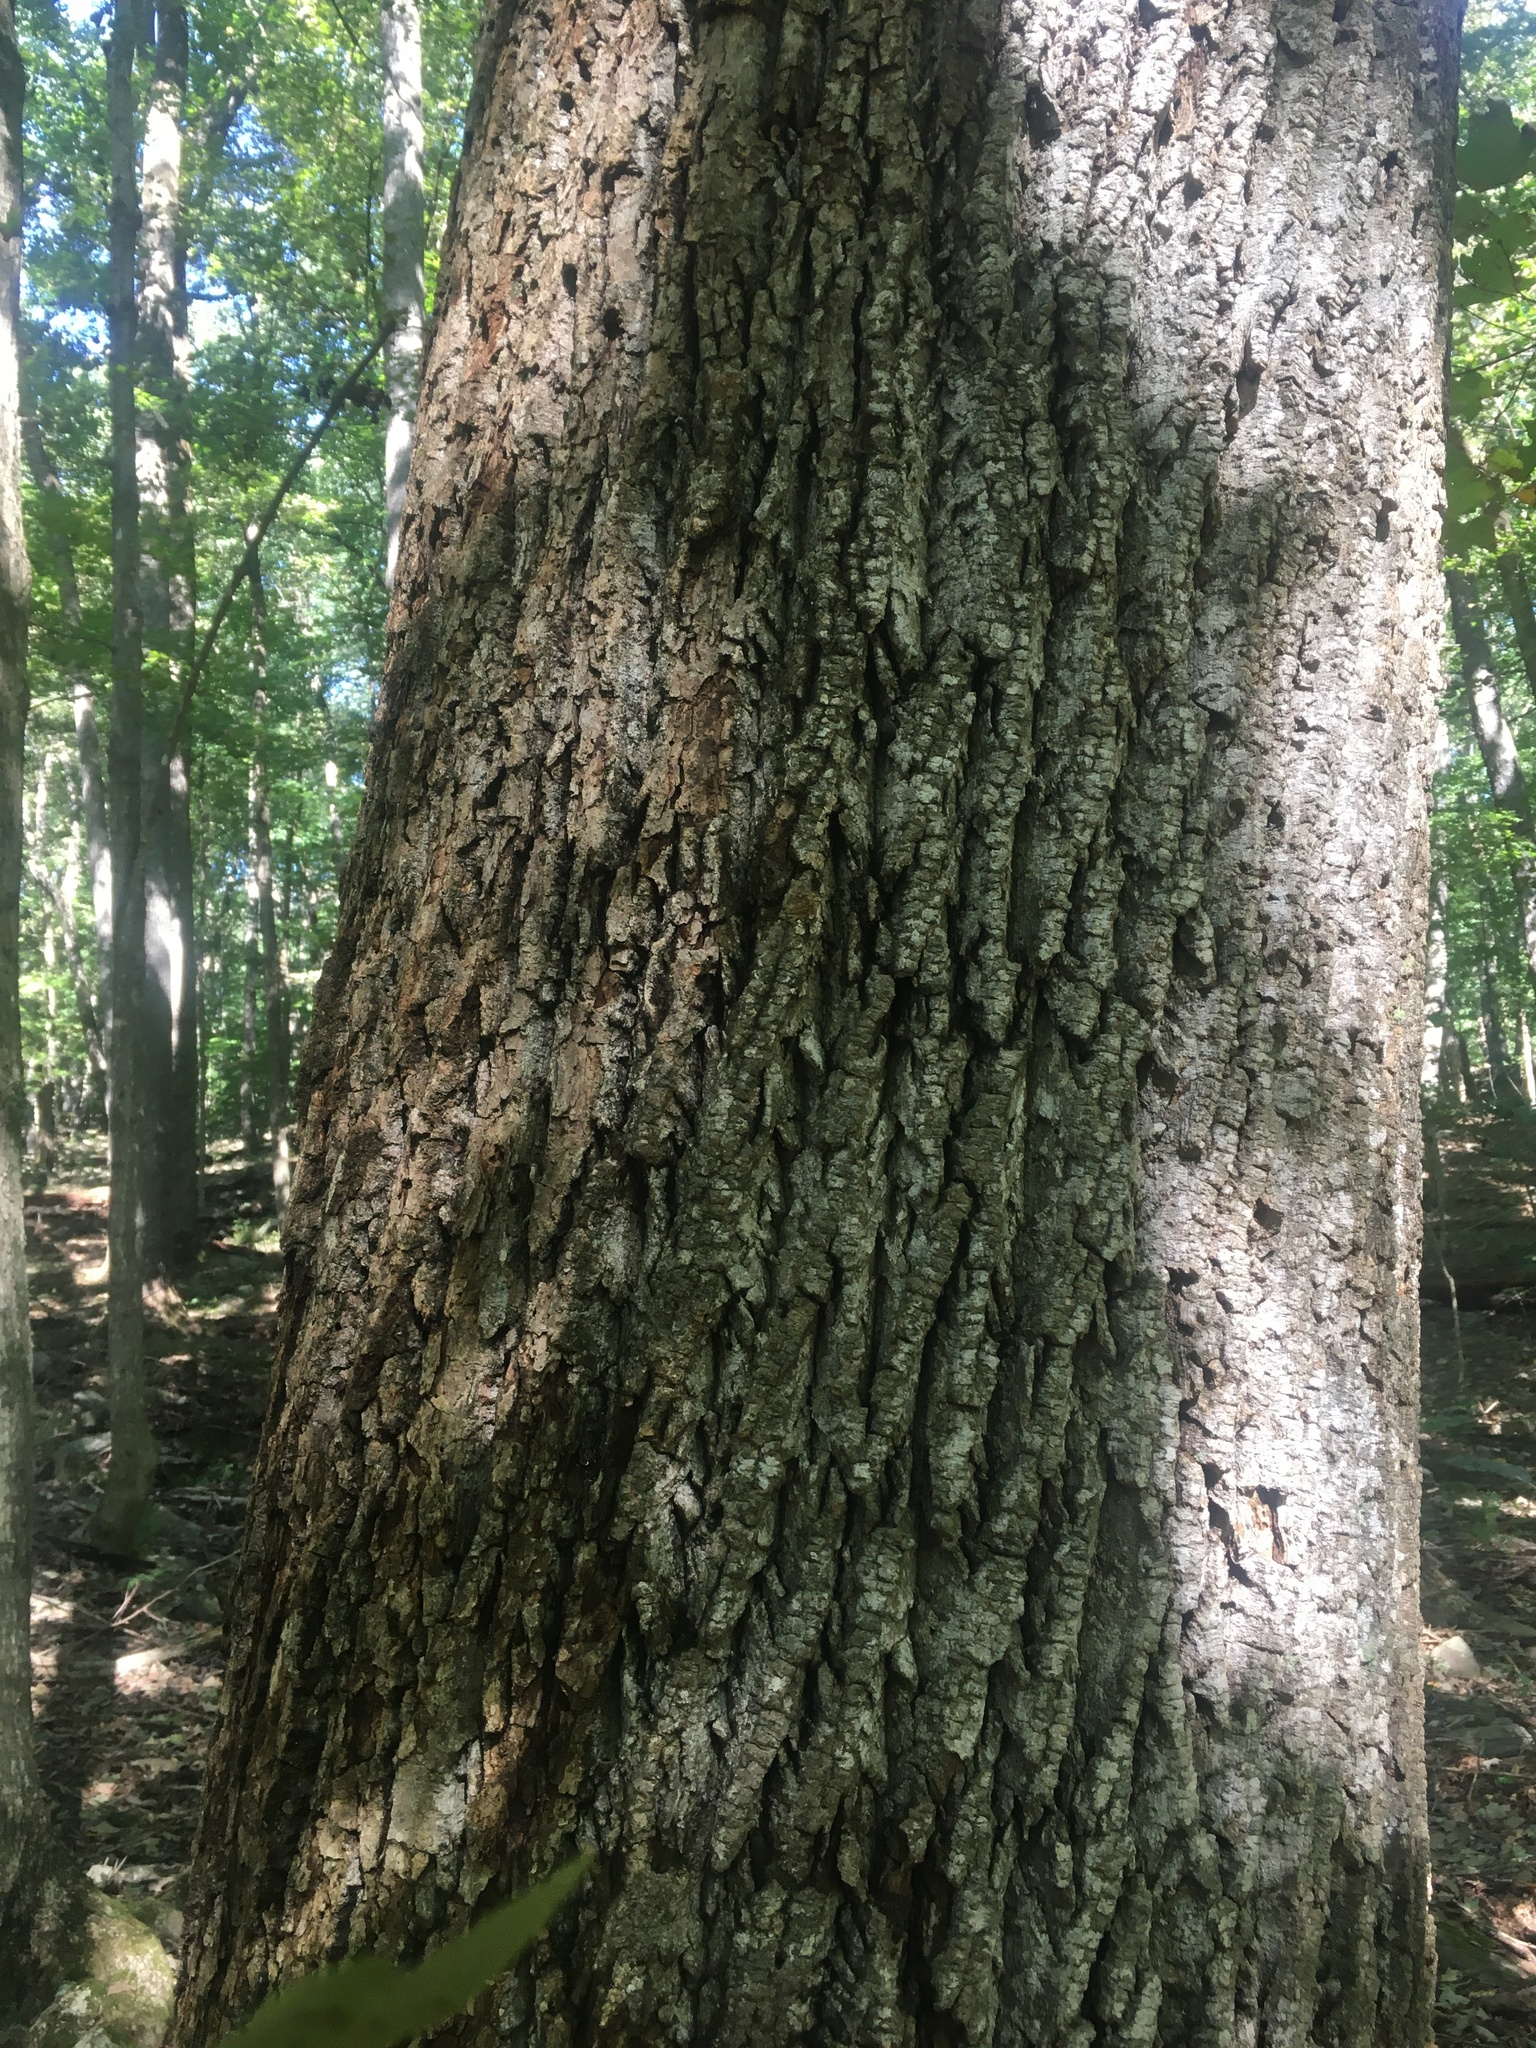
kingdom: Plantae
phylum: Tracheophyta
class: Magnoliopsida
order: Magnoliales
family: Magnoliaceae
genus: Liriodendron
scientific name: Liriodendron tulipifera
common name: Tulip tree
